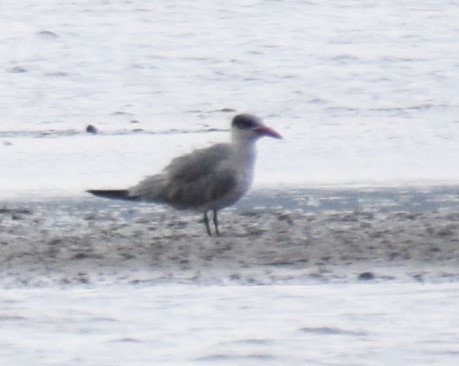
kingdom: Animalia
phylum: Chordata
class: Aves
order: Charadriiformes
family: Laridae
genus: Hydroprogne
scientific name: Hydroprogne caspia
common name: Caspian tern
